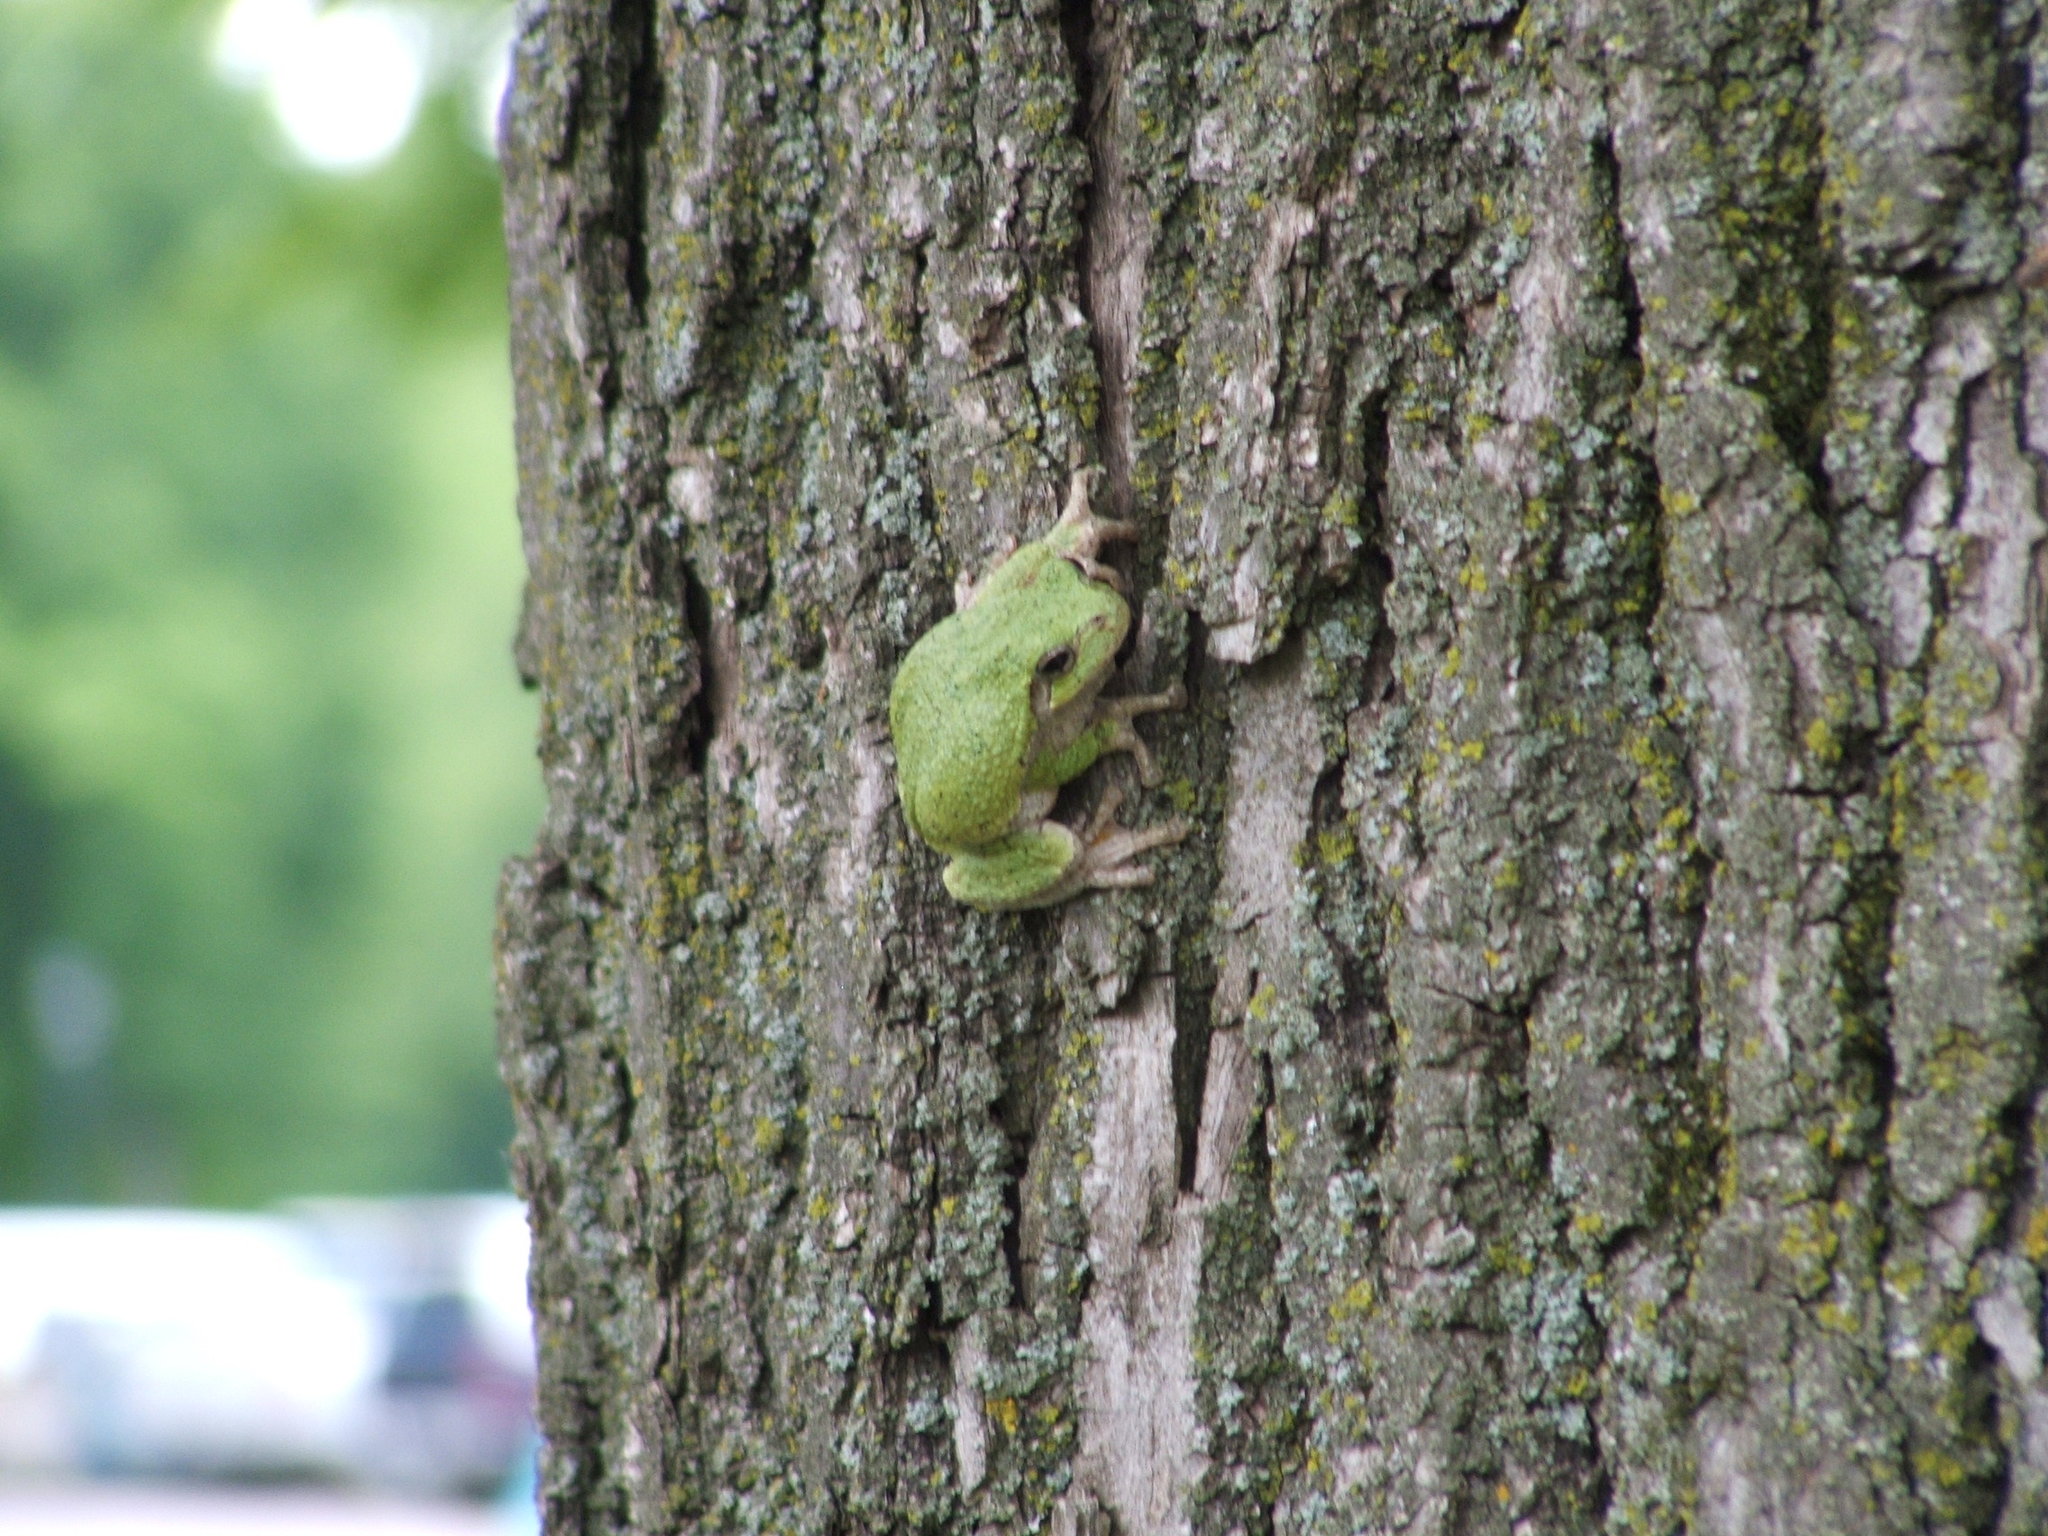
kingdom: Animalia
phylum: Chordata
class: Amphibia
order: Anura
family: Hylidae
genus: Hyla
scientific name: Hyla
